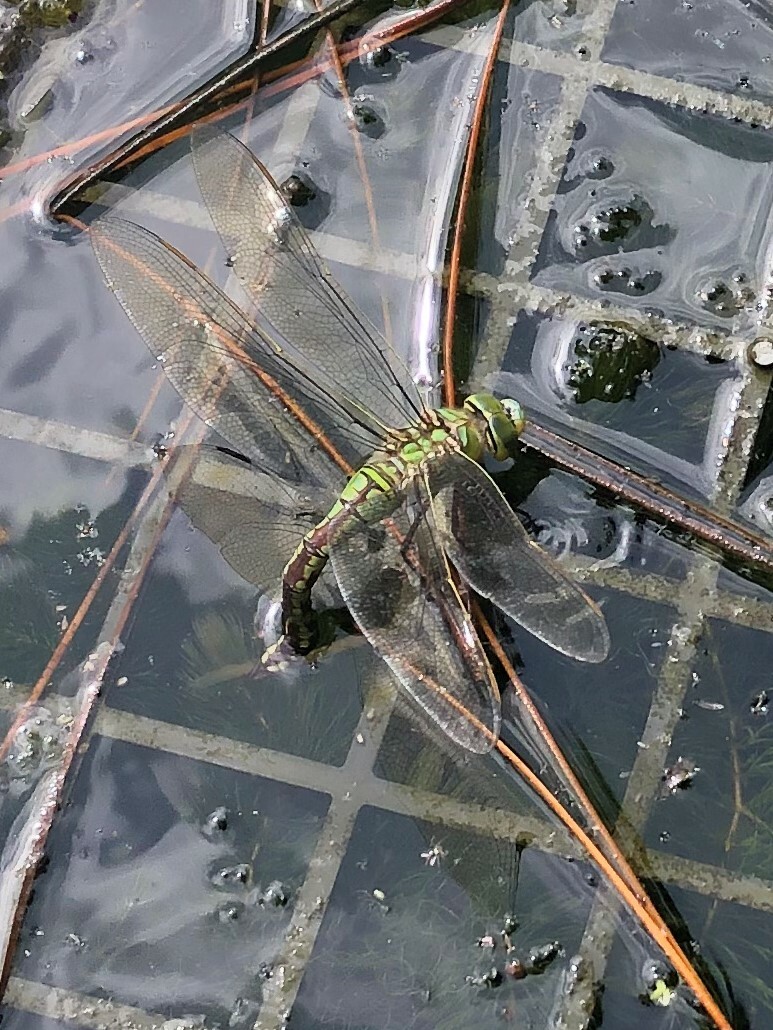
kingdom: Animalia
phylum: Arthropoda
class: Insecta
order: Odonata
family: Aeshnidae
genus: Anax
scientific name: Anax imperator
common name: Emperor dragonfly
